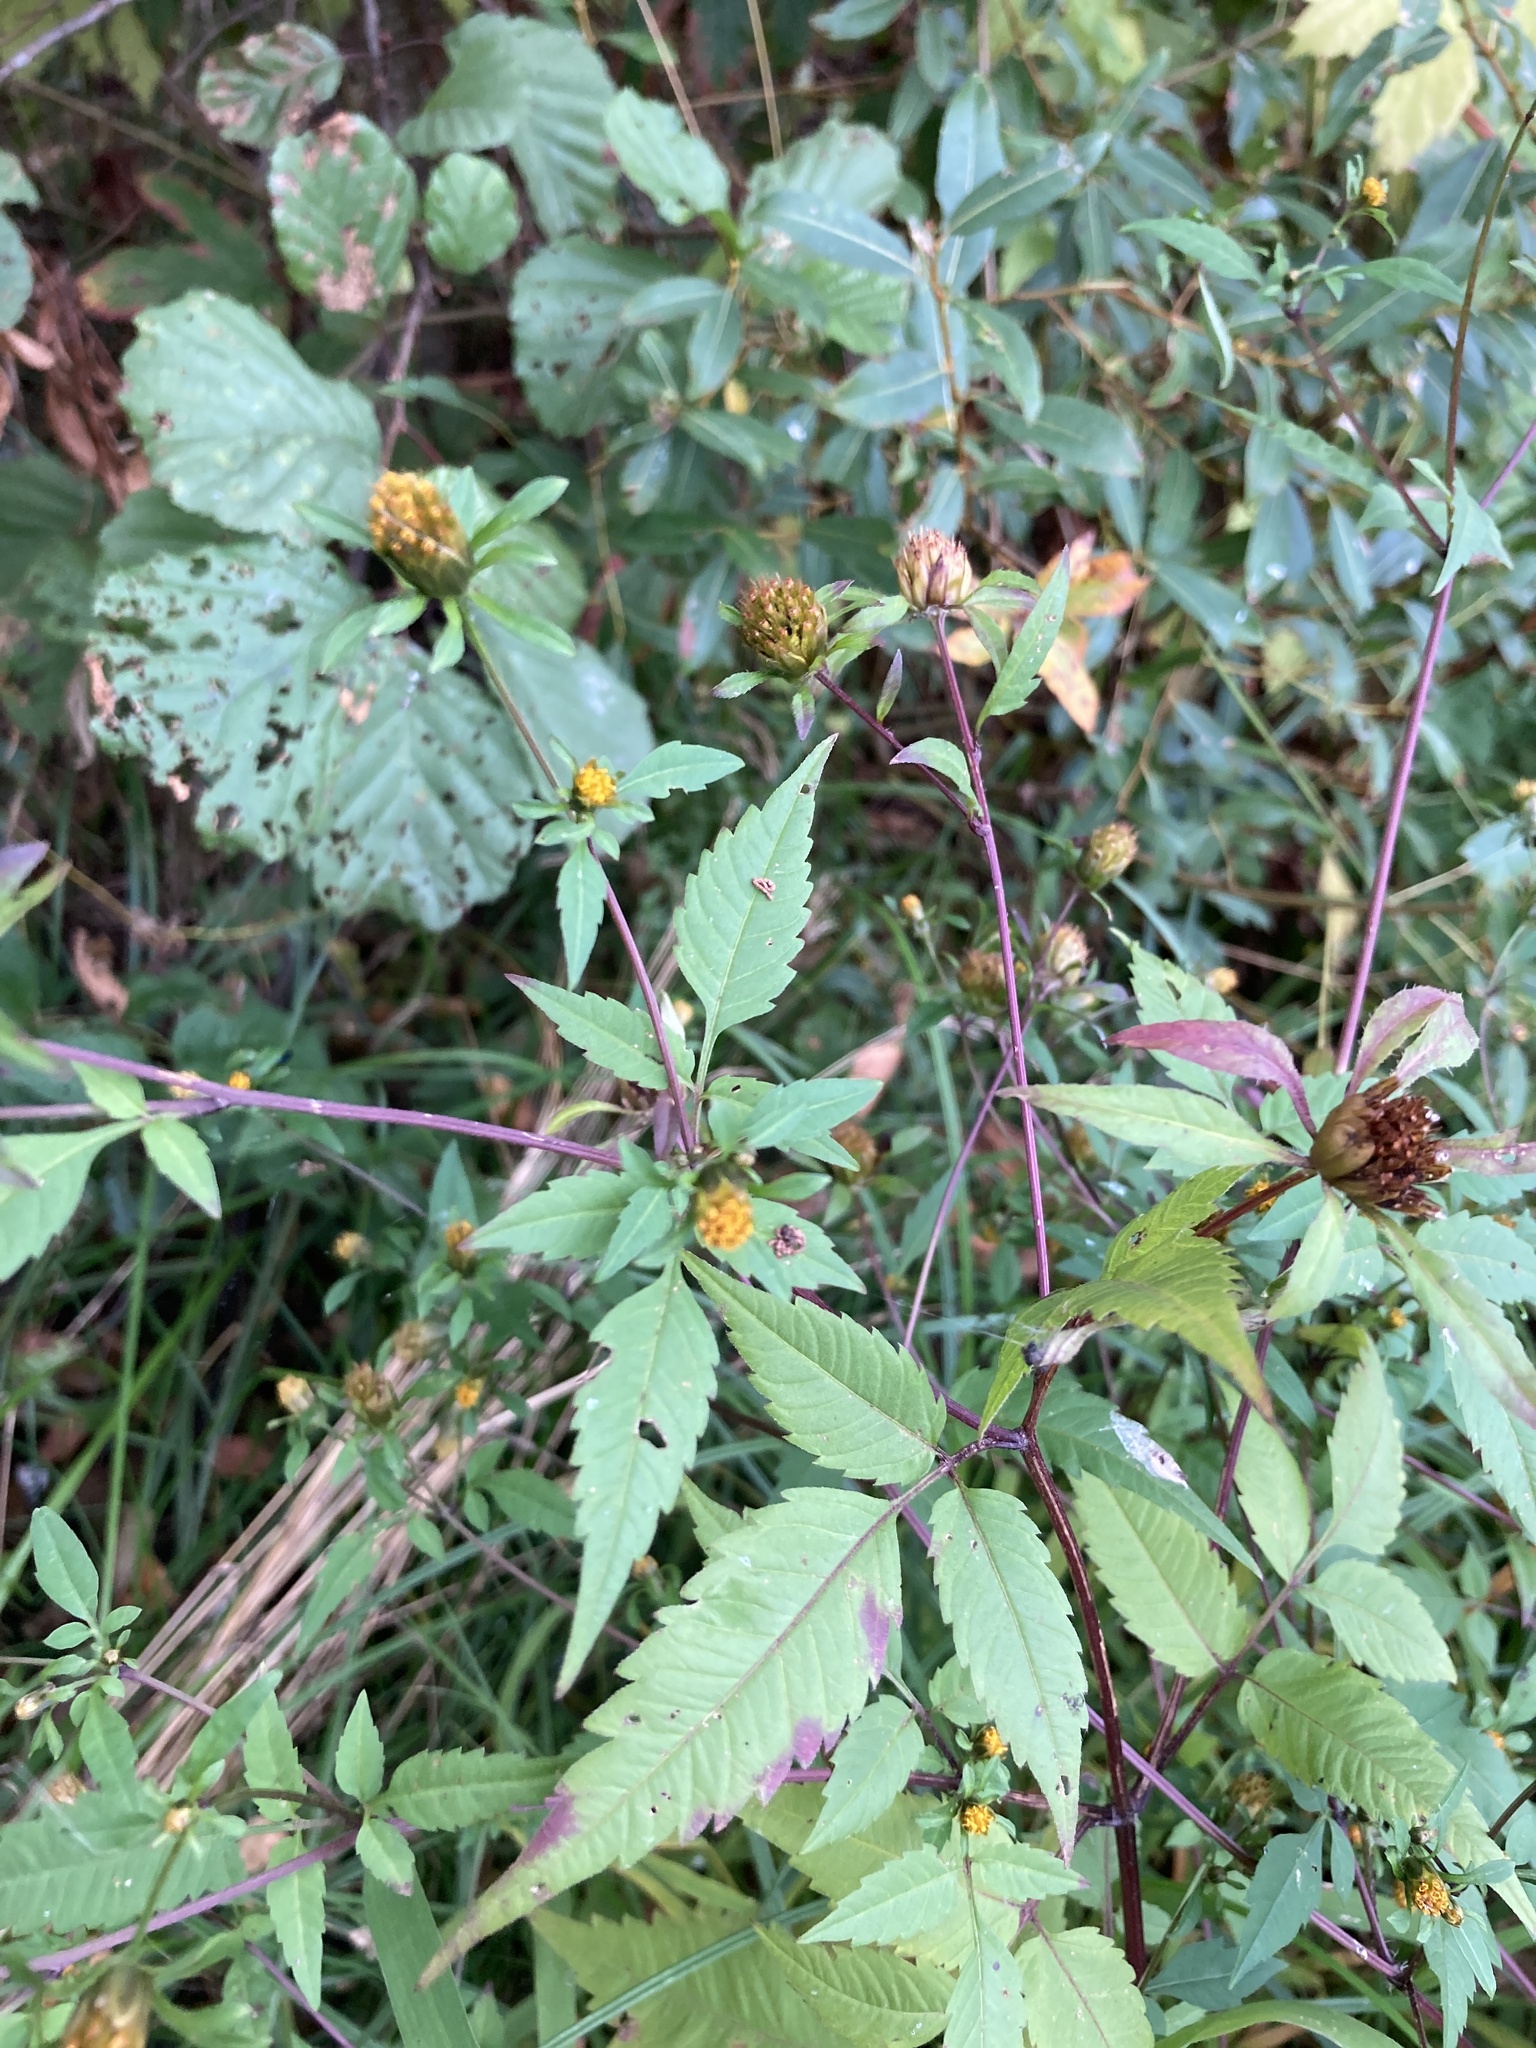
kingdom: Plantae
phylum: Tracheophyta
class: Magnoliopsida
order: Asterales
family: Asteraceae
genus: Bidens
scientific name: Bidens frondosa
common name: Beggarticks
